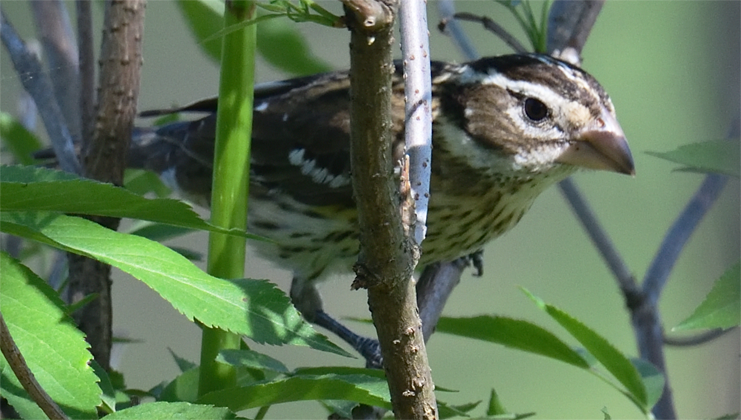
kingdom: Animalia
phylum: Chordata
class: Aves
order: Passeriformes
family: Cardinalidae
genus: Pheucticus
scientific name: Pheucticus ludovicianus
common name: Rose-breasted grosbeak
